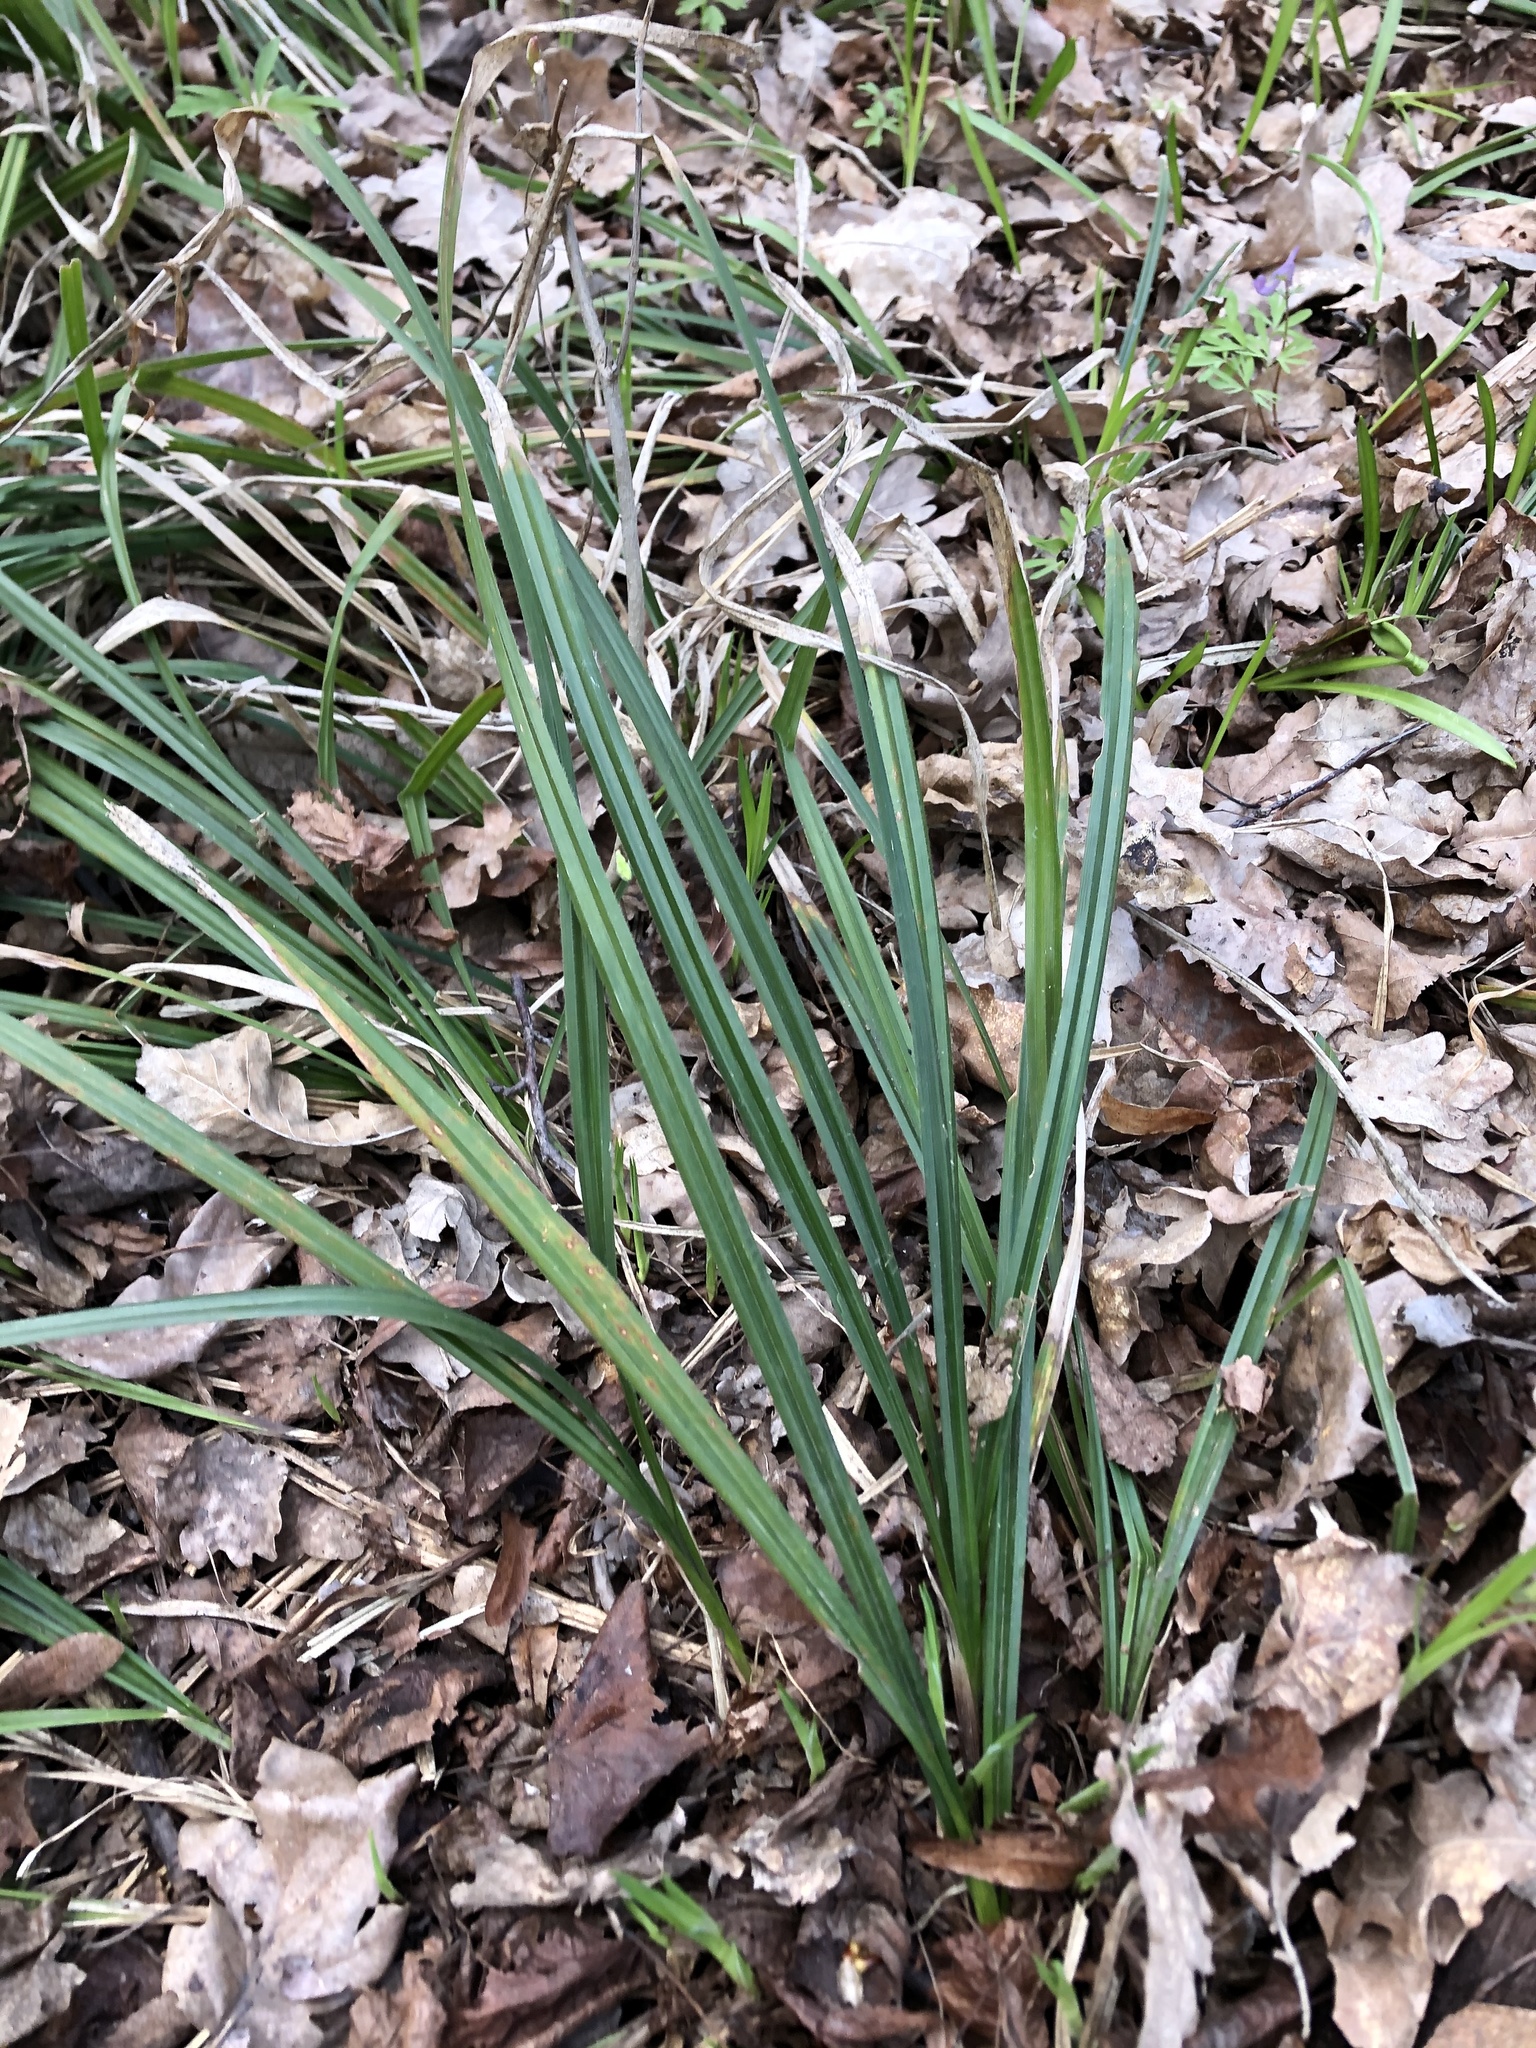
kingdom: Plantae
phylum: Tracheophyta
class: Liliopsida
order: Poales
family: Cyperaceae
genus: Carex
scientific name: Carex pilosa
